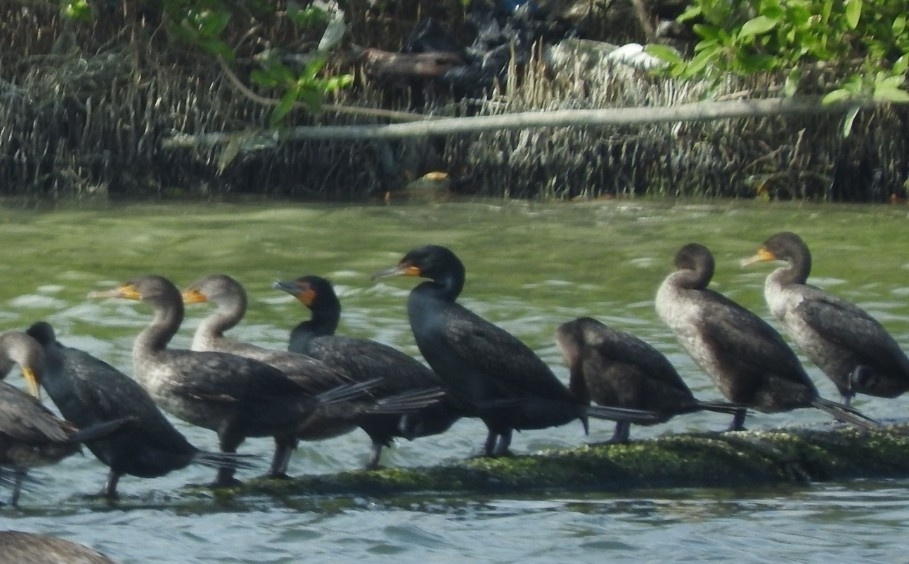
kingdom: Animalia
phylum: Chordata
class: Aves
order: Suliformes
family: Phalacrocoracidae
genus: Phalacrocorax
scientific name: Phalacrocorax auritus
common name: Double-crested cormorant
